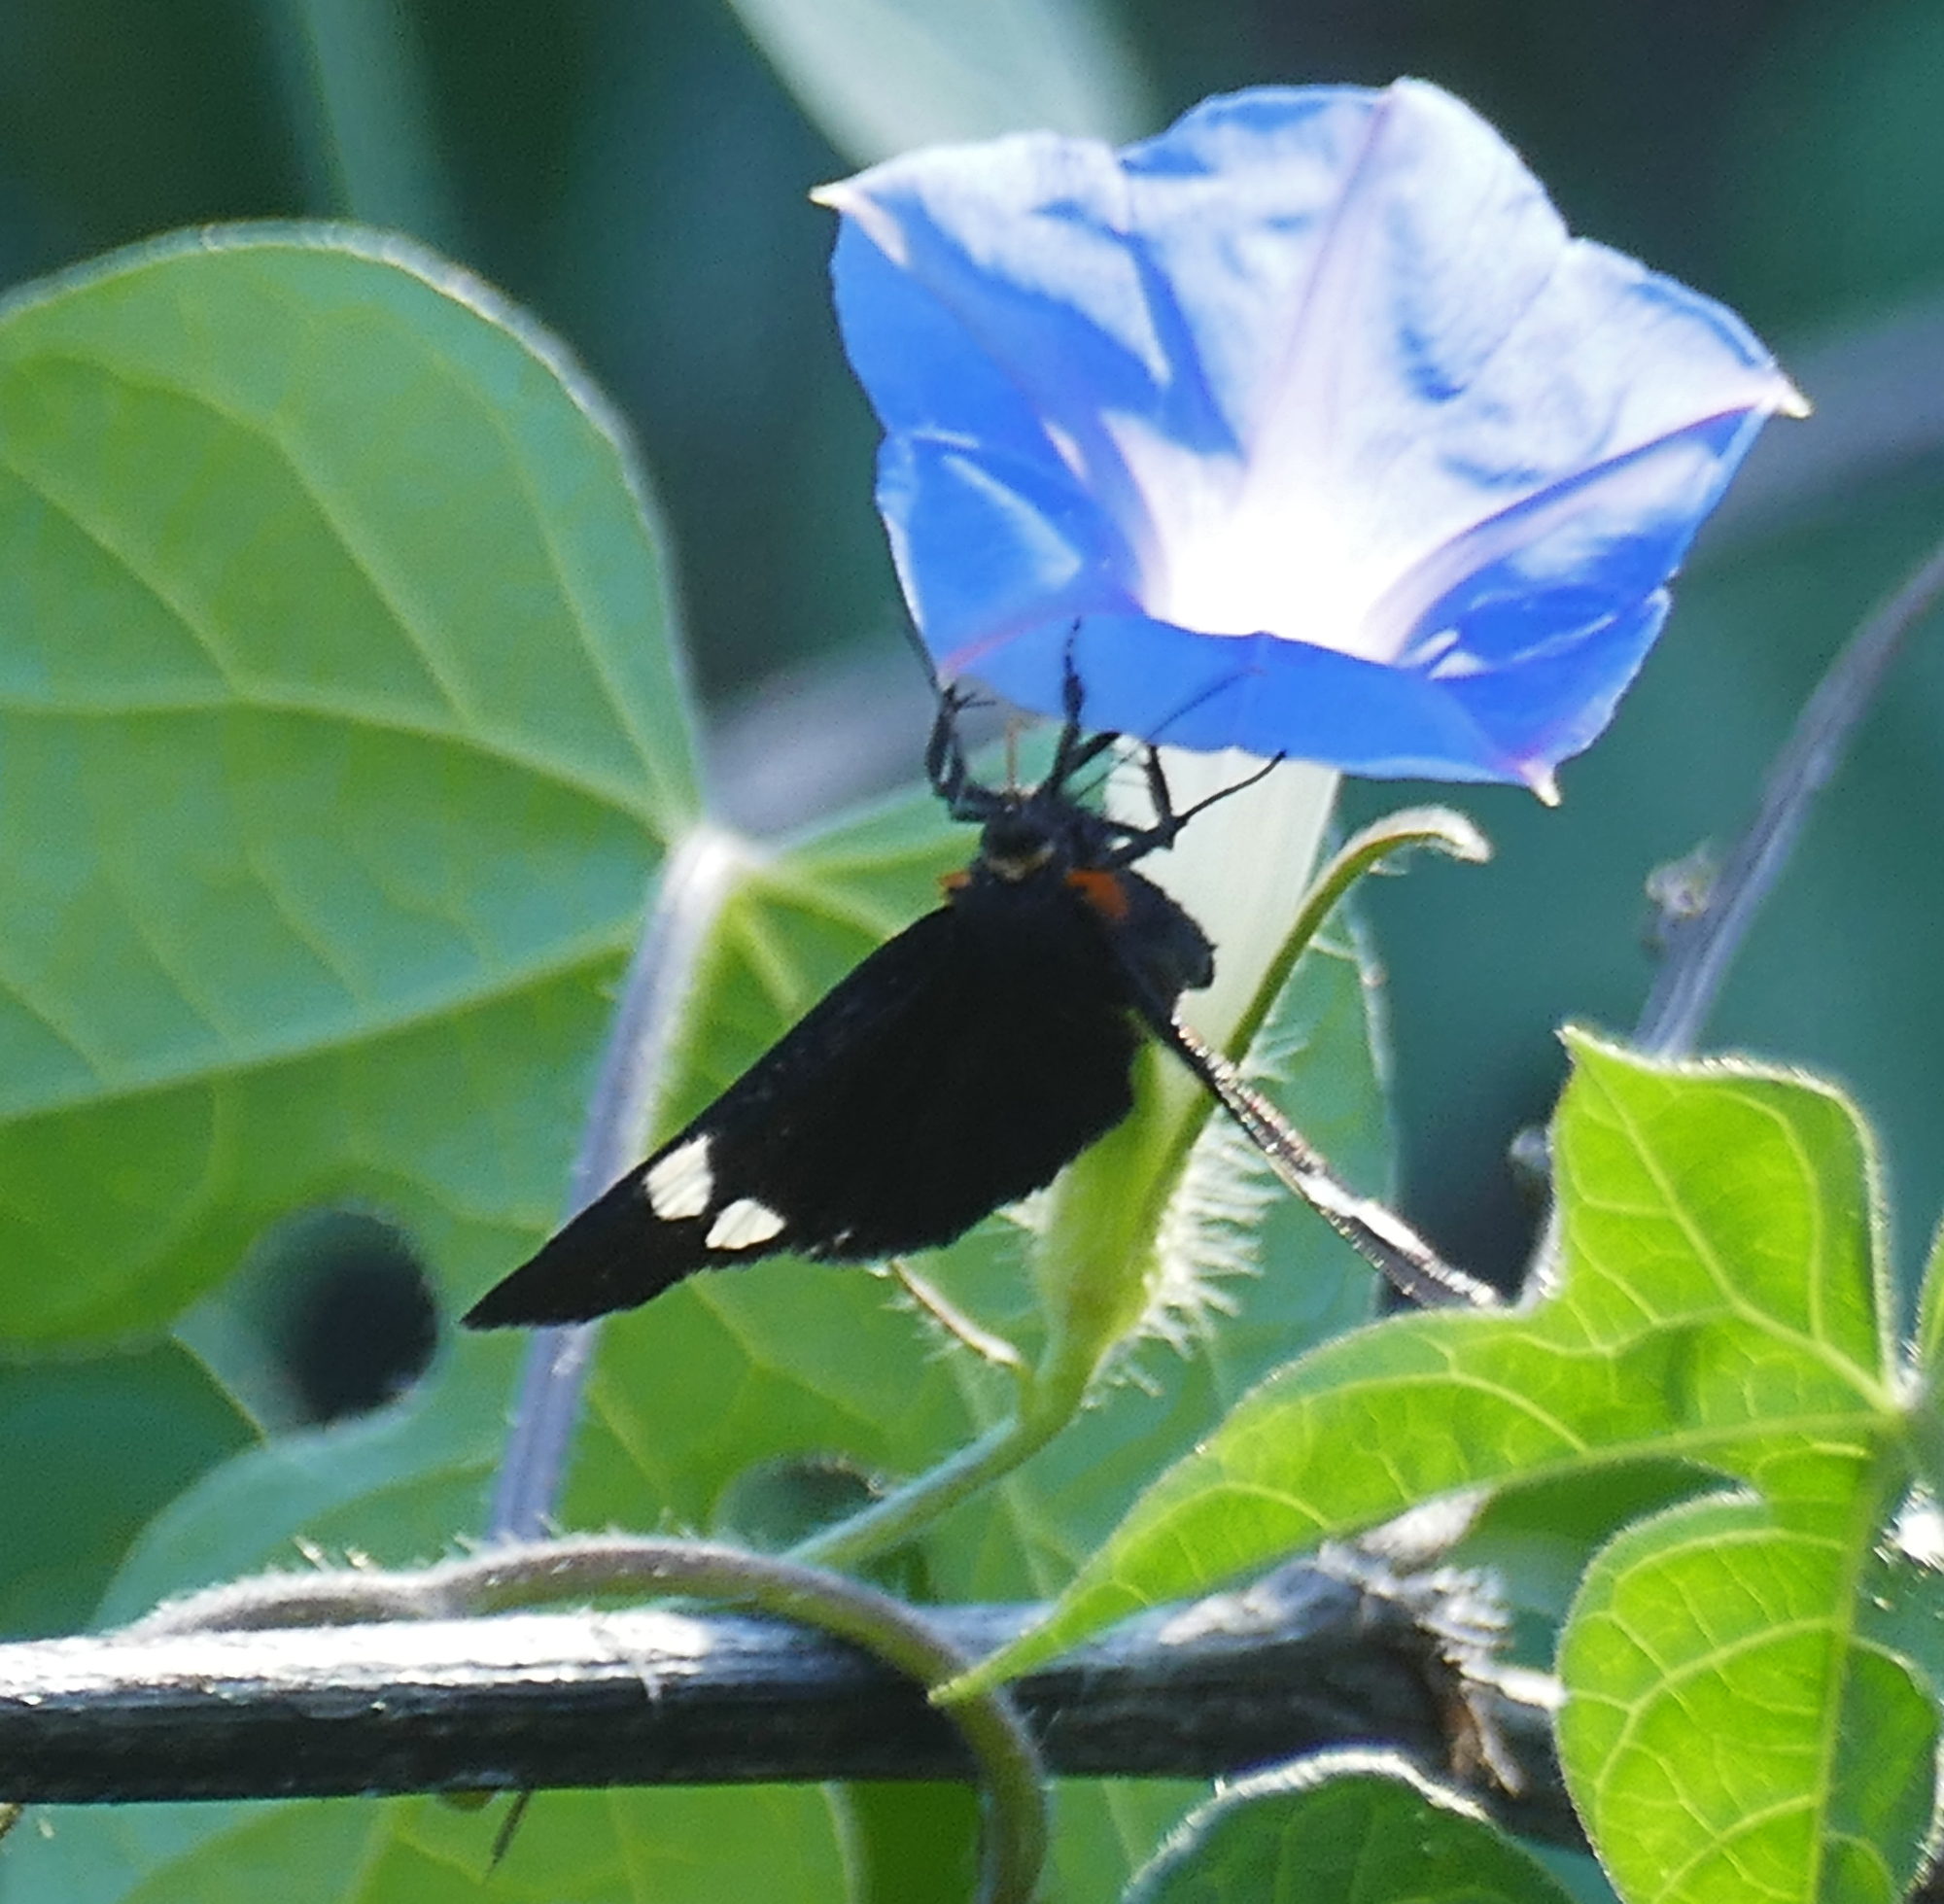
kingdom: Animalia
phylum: Arthropoda
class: Insecta
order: Lepidoptera
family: Noctuidae
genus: Alypiodes
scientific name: Alypiodes geronimo
